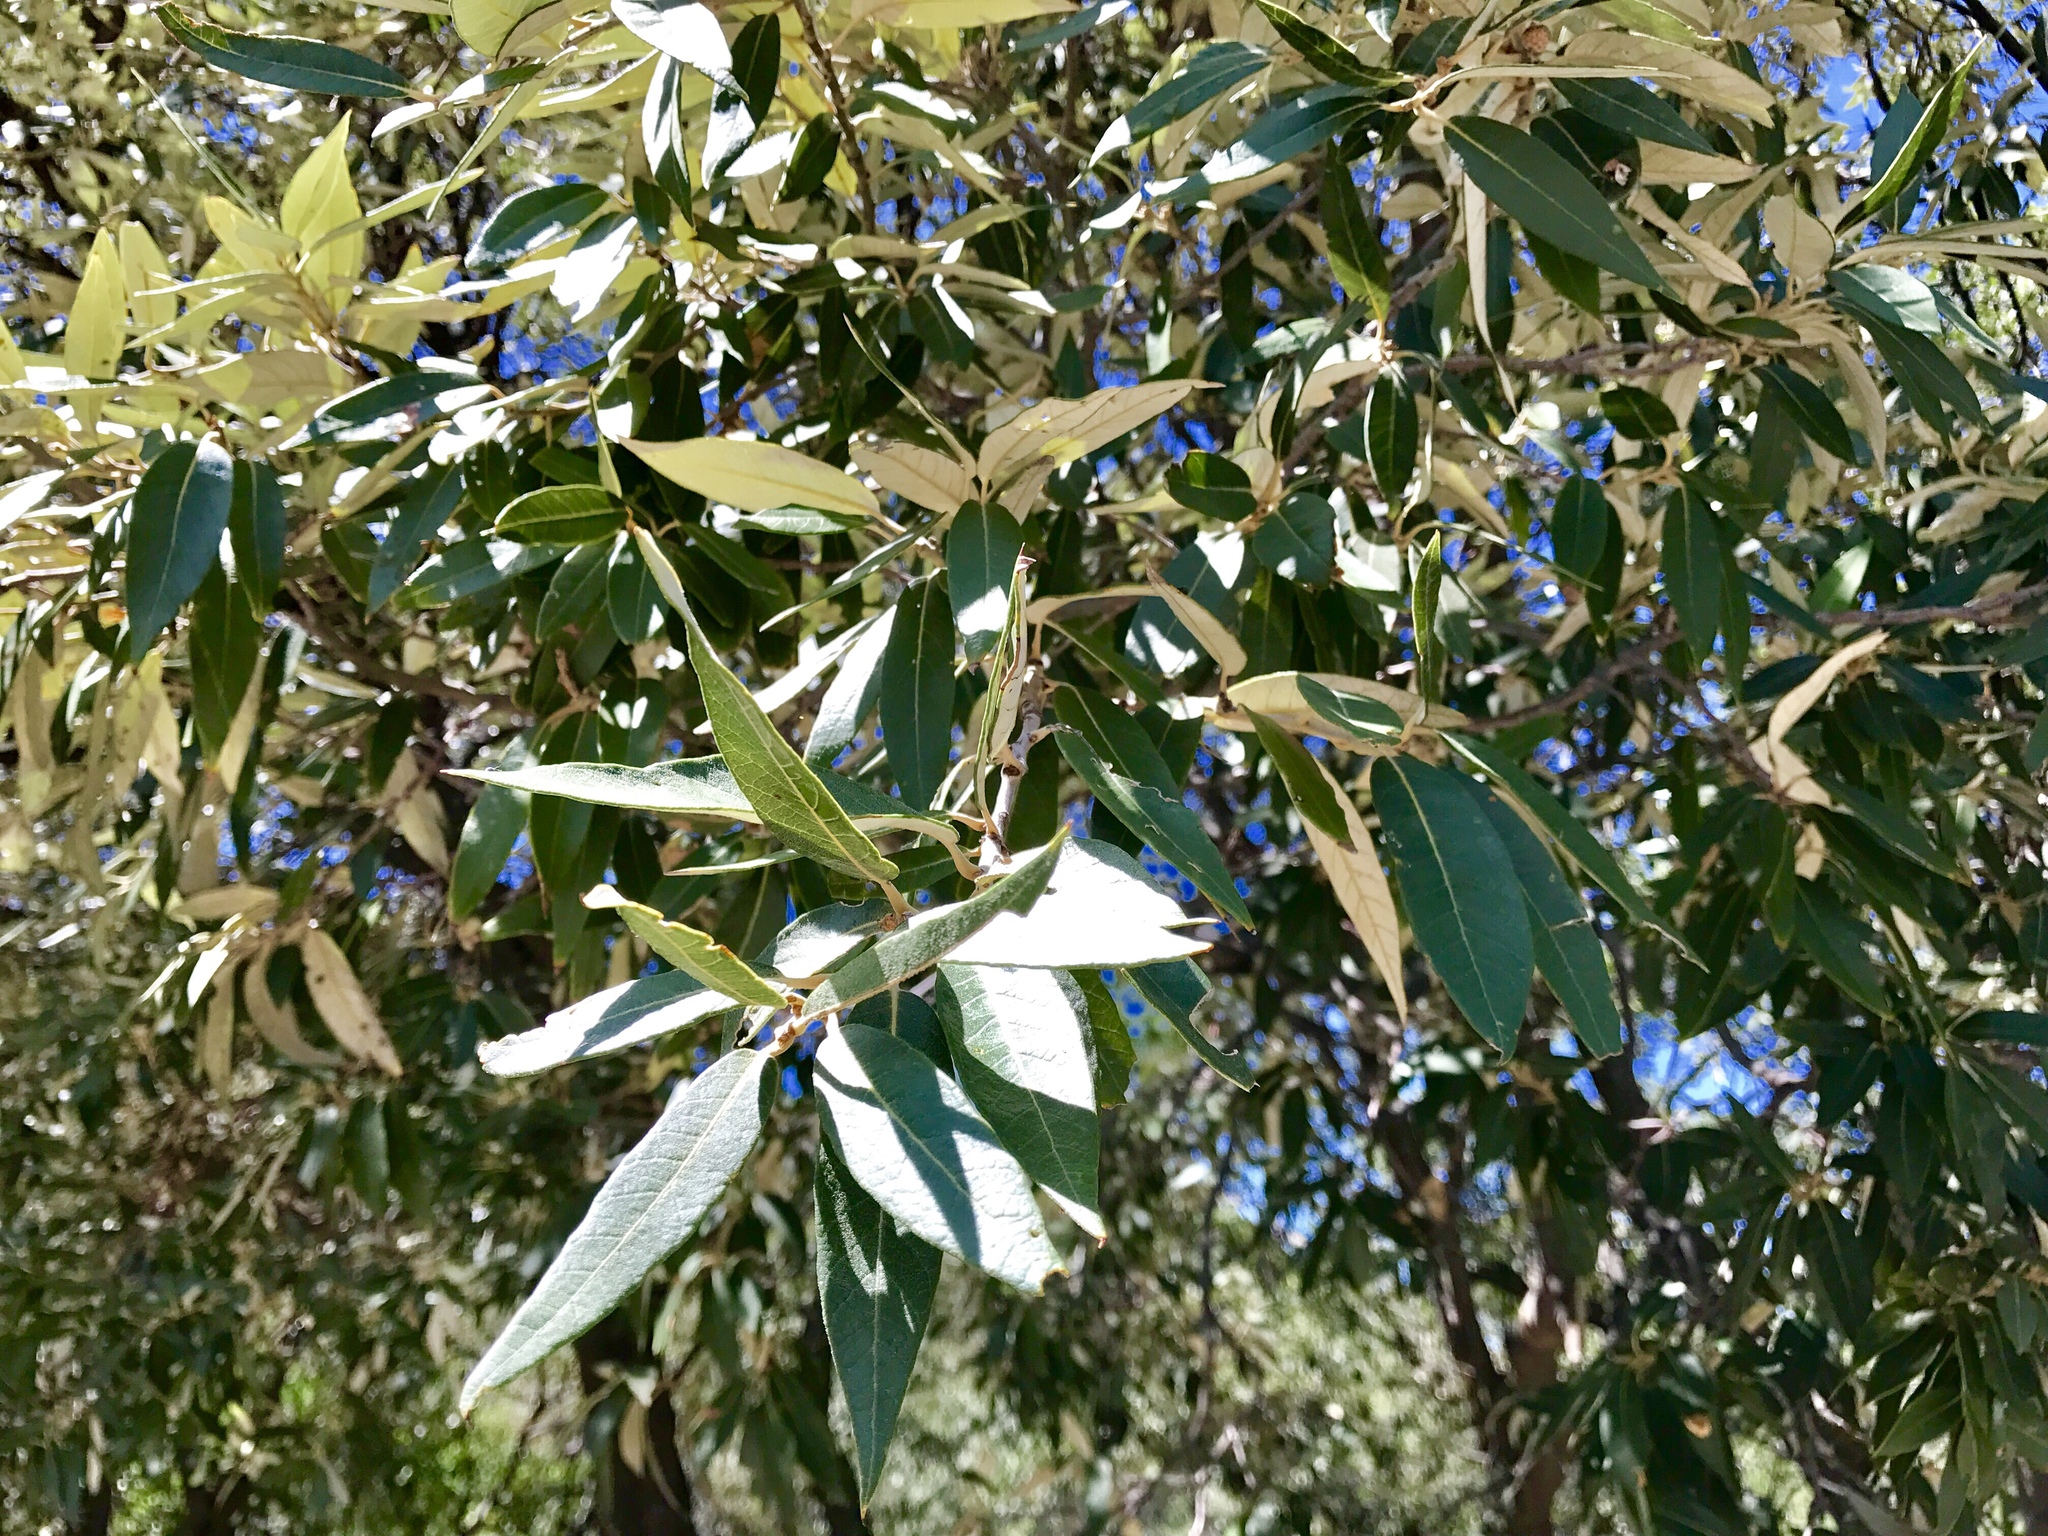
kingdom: Plantae
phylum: Tracheophyta
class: Magnoliopsida
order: Fagales
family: Fagaceae
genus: Quercus
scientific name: Quercus hypoleucoides
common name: Silverleaf oak
